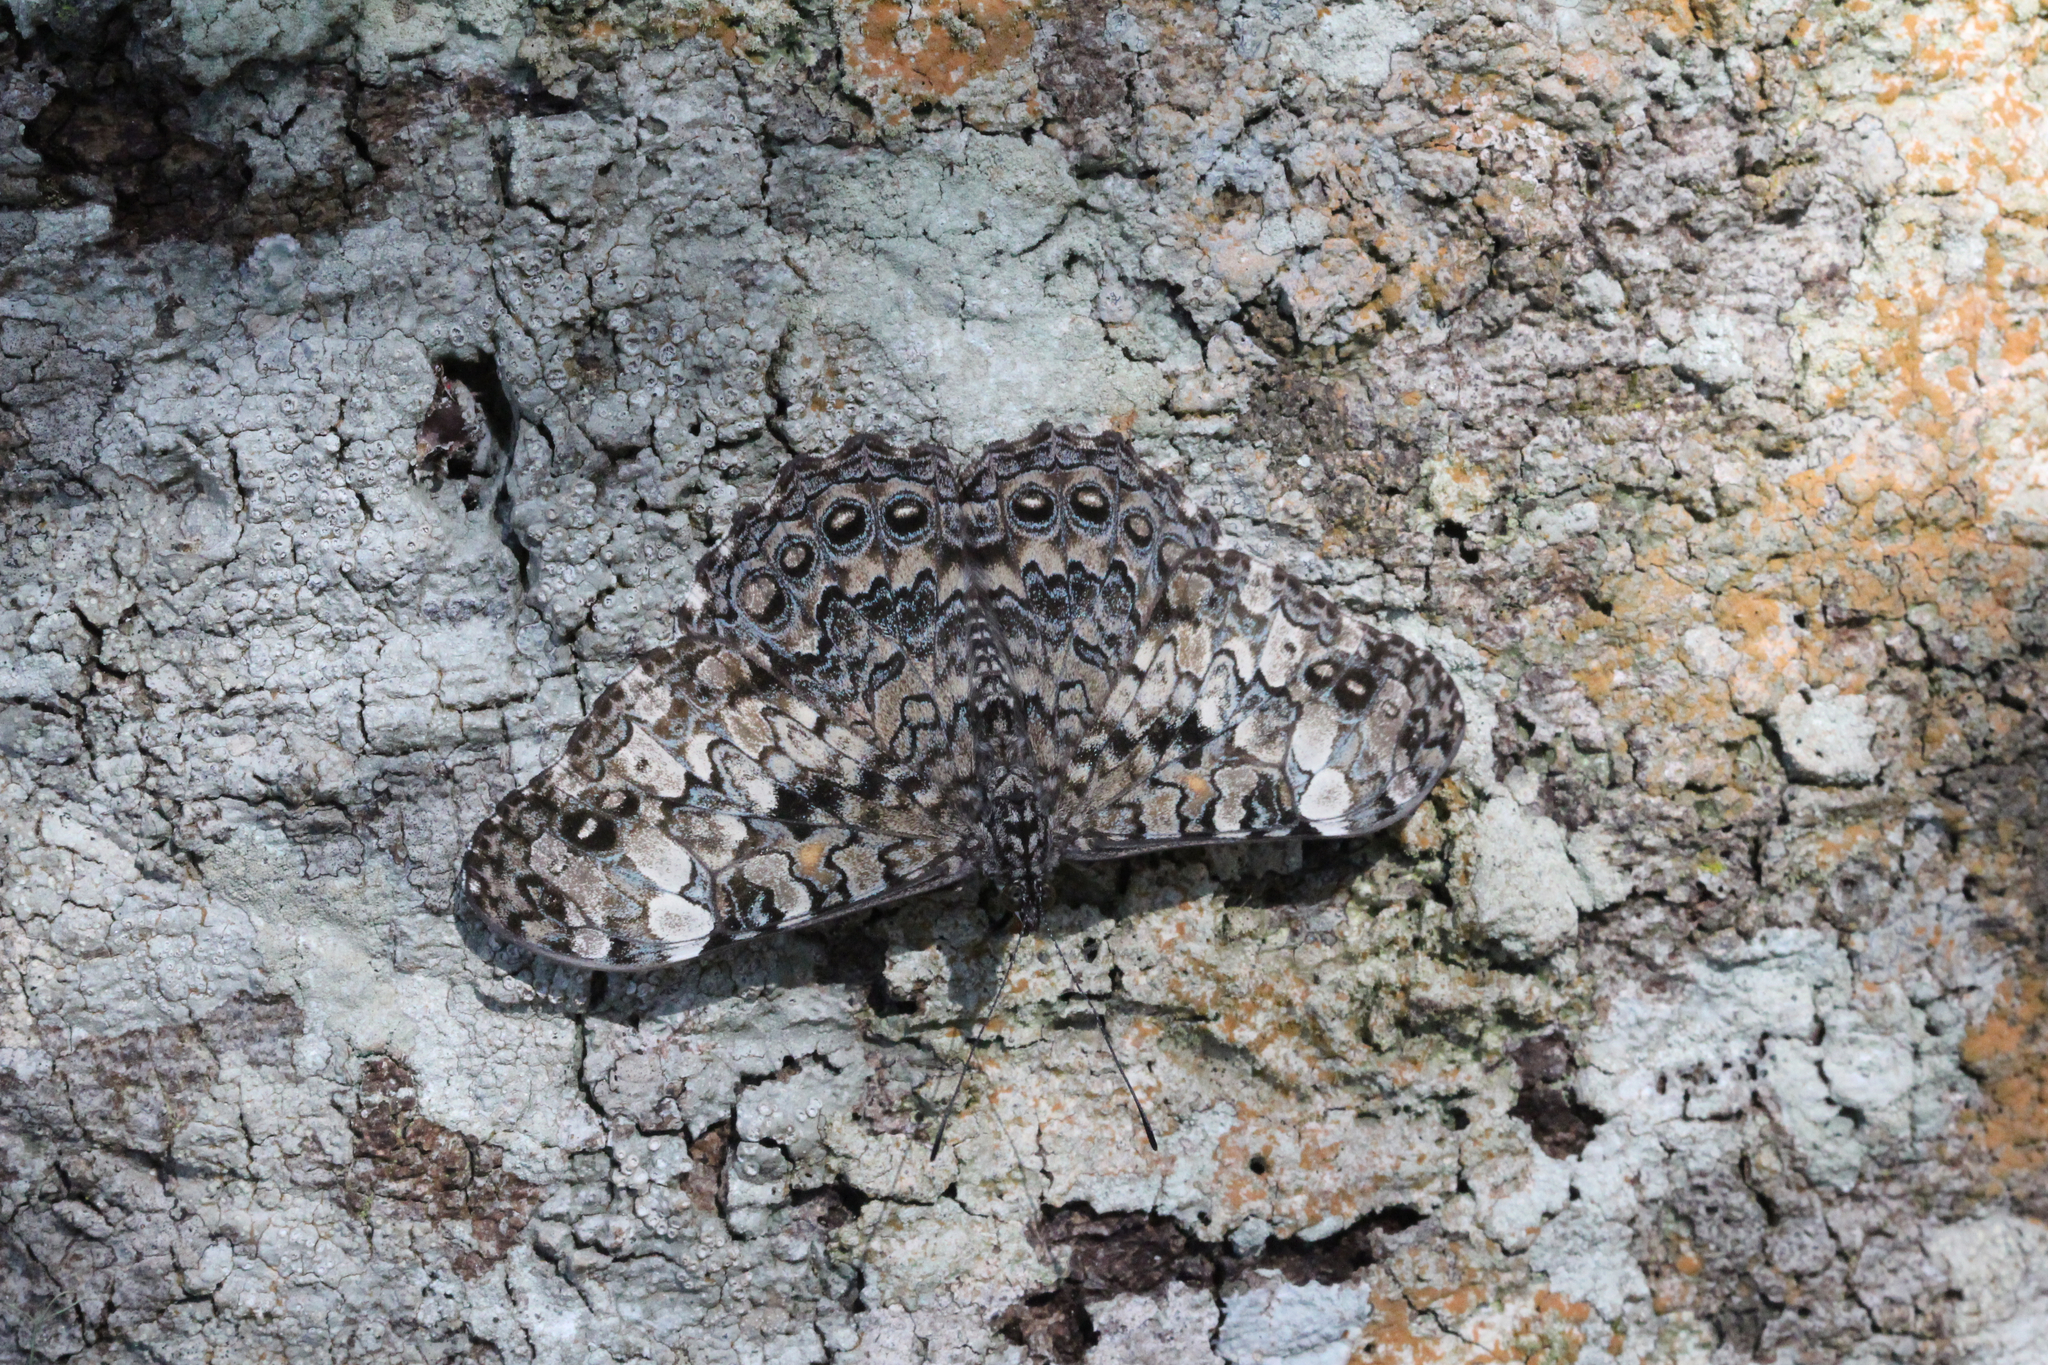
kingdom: Animalia
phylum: Arthropoda
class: Insecta
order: Lepidoptera
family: Nymphalidae
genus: Hamadryas
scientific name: Hamadryas epinome
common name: Epinome cracker
